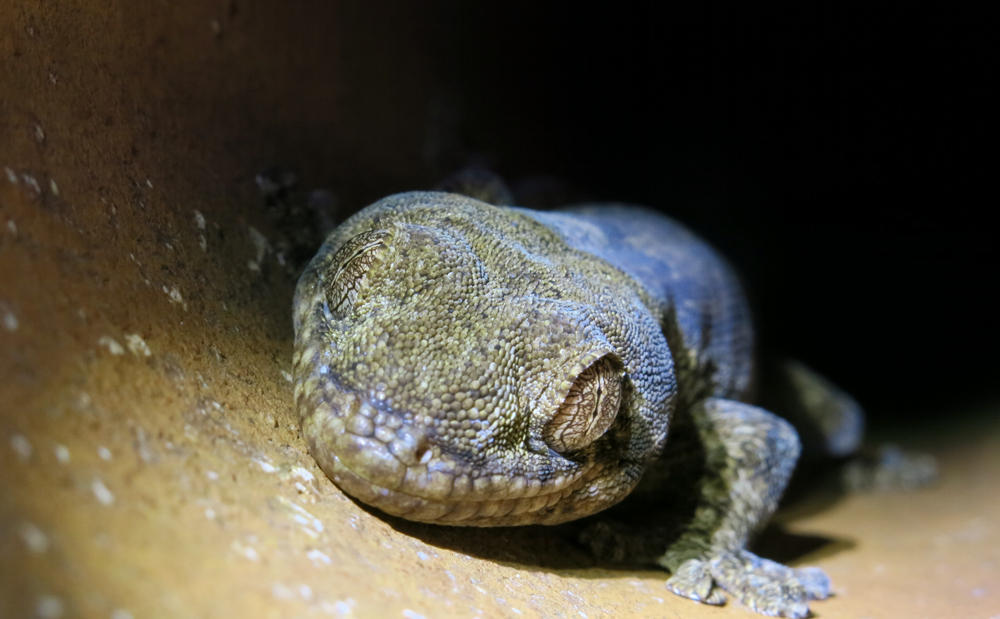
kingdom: Animalia
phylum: Chordata
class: Squamata
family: Gekkonidae
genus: Homopholis
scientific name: Homopholis walbergii
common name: Wahlberg’s velvet gecko
